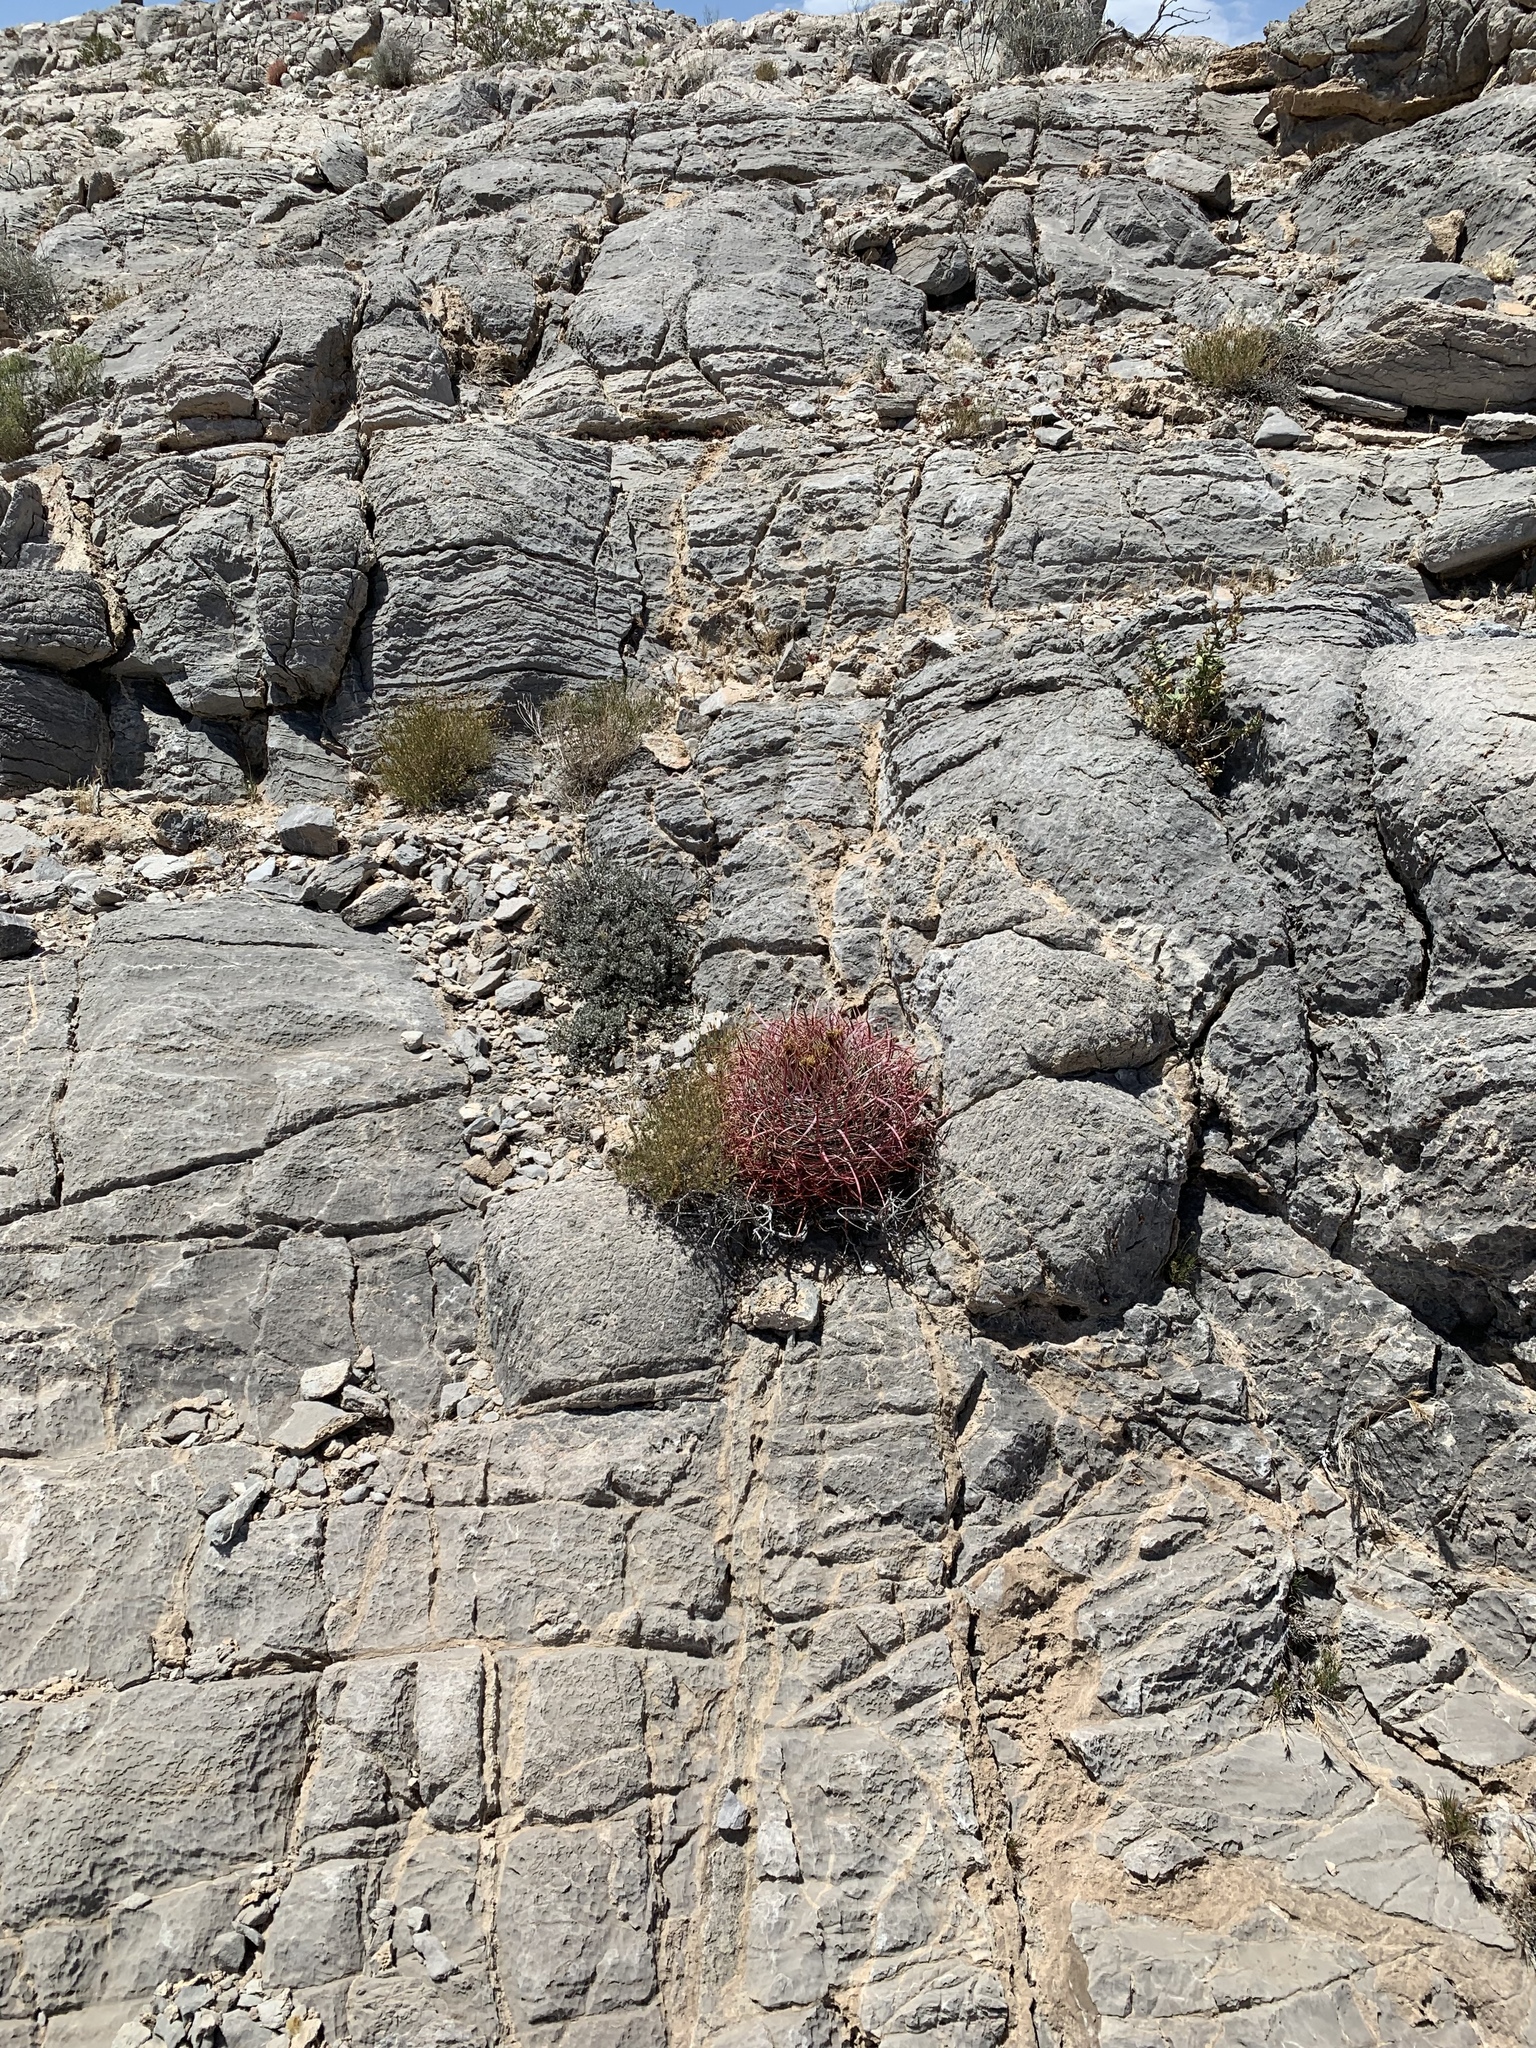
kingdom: Plantae
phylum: Tracheophyta
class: Magnoliopsida
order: Caryophyllales
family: Cactaceae
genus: Ferocactus
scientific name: Ferocactus cylindraceus
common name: California barrel cactus
